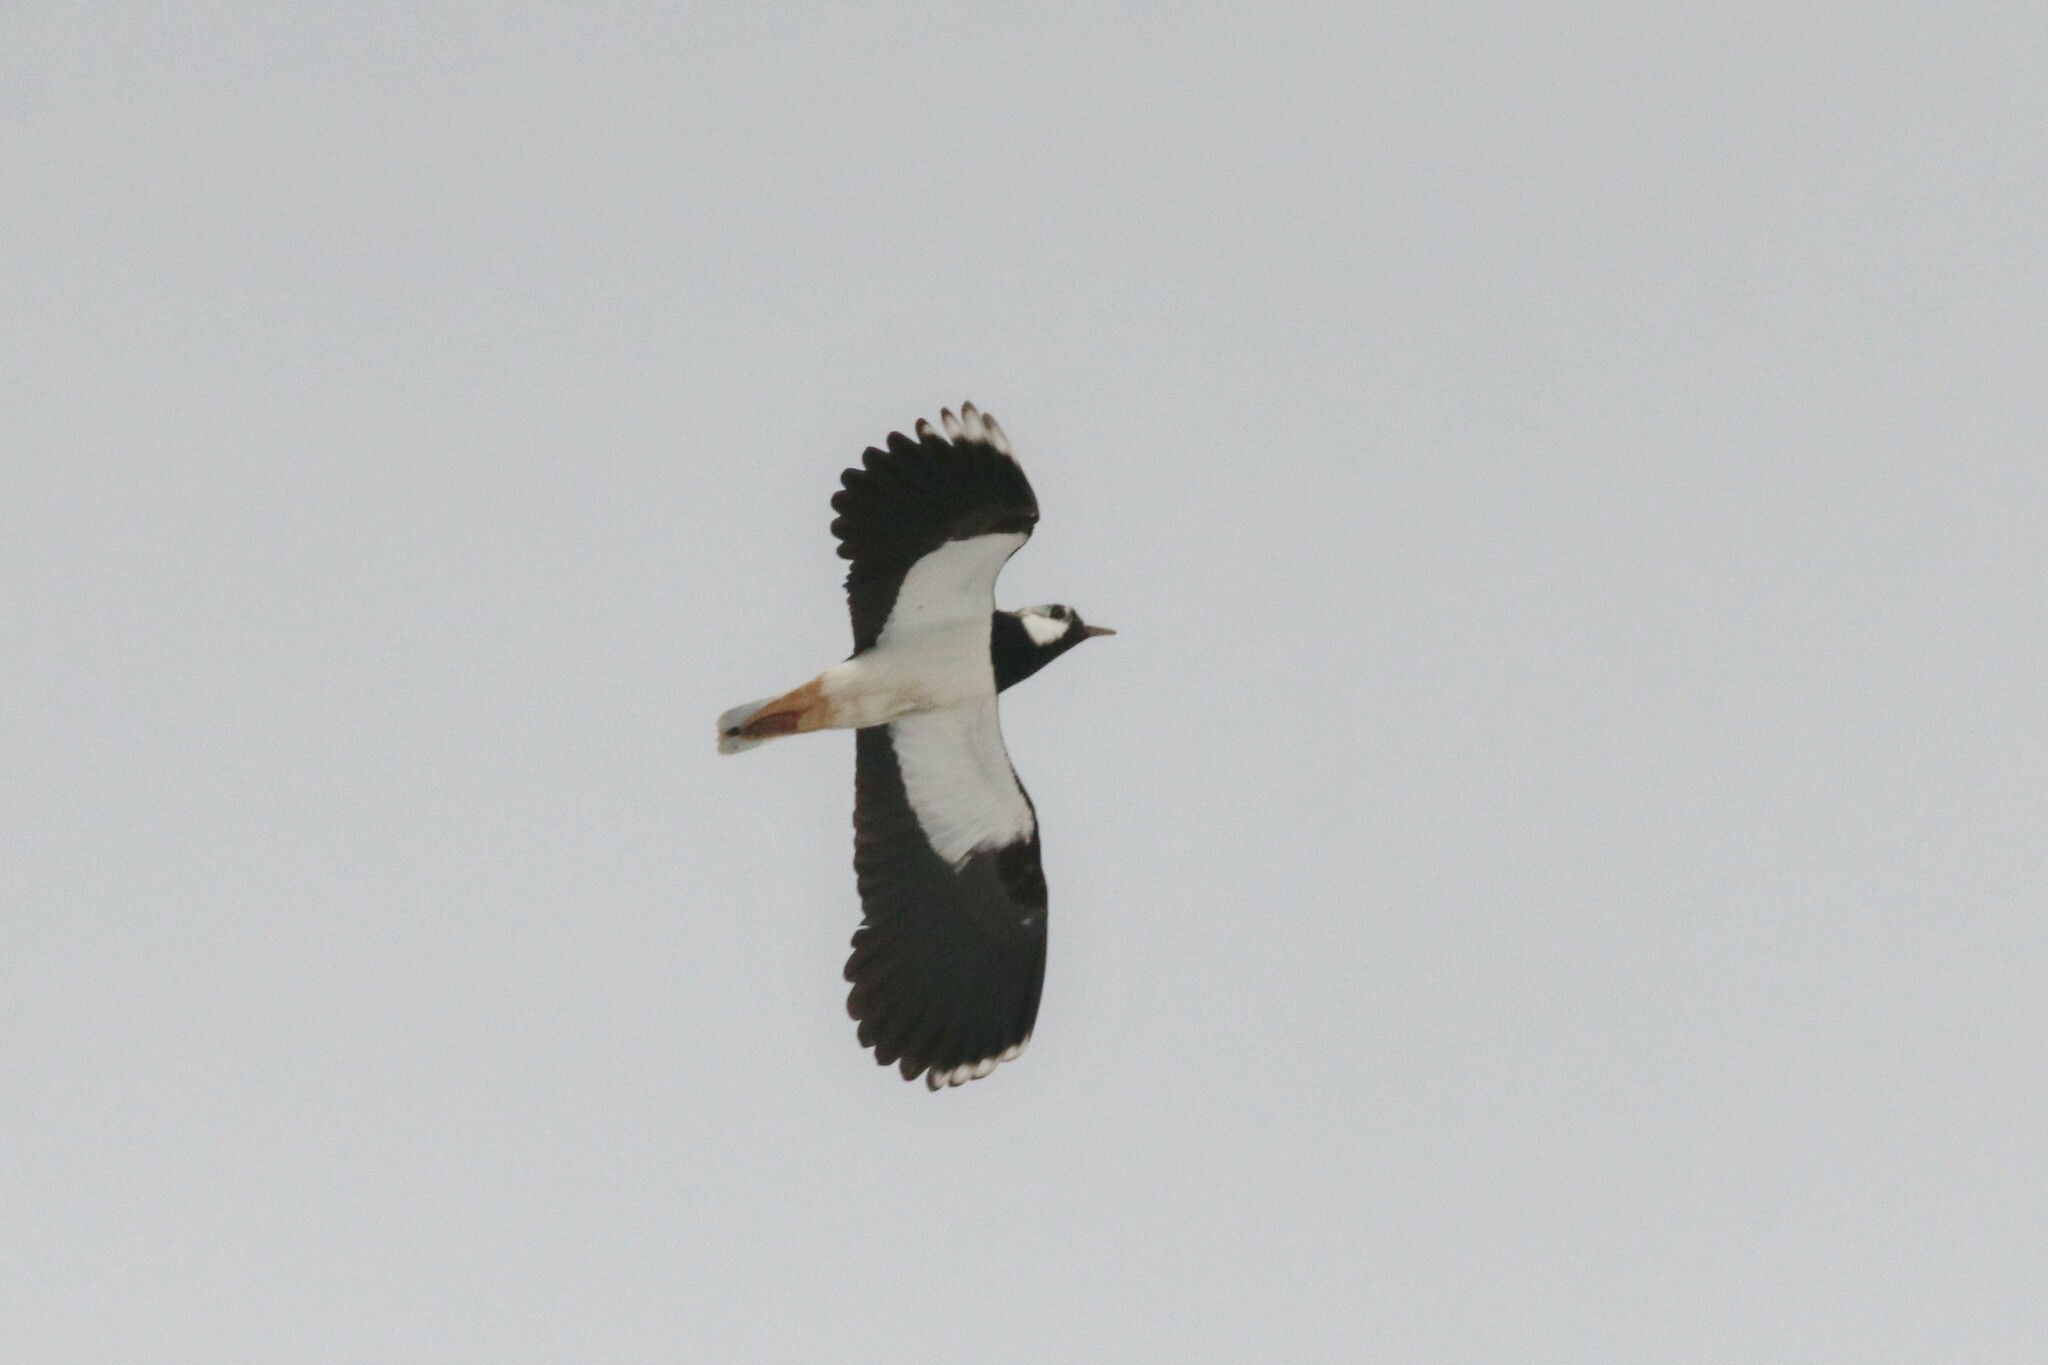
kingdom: Animalia
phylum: Chordata
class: Aves
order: Charadriiformes
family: Charadriidae
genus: Vanellus
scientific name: Vanellus vanellus
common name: Northern lapwing
